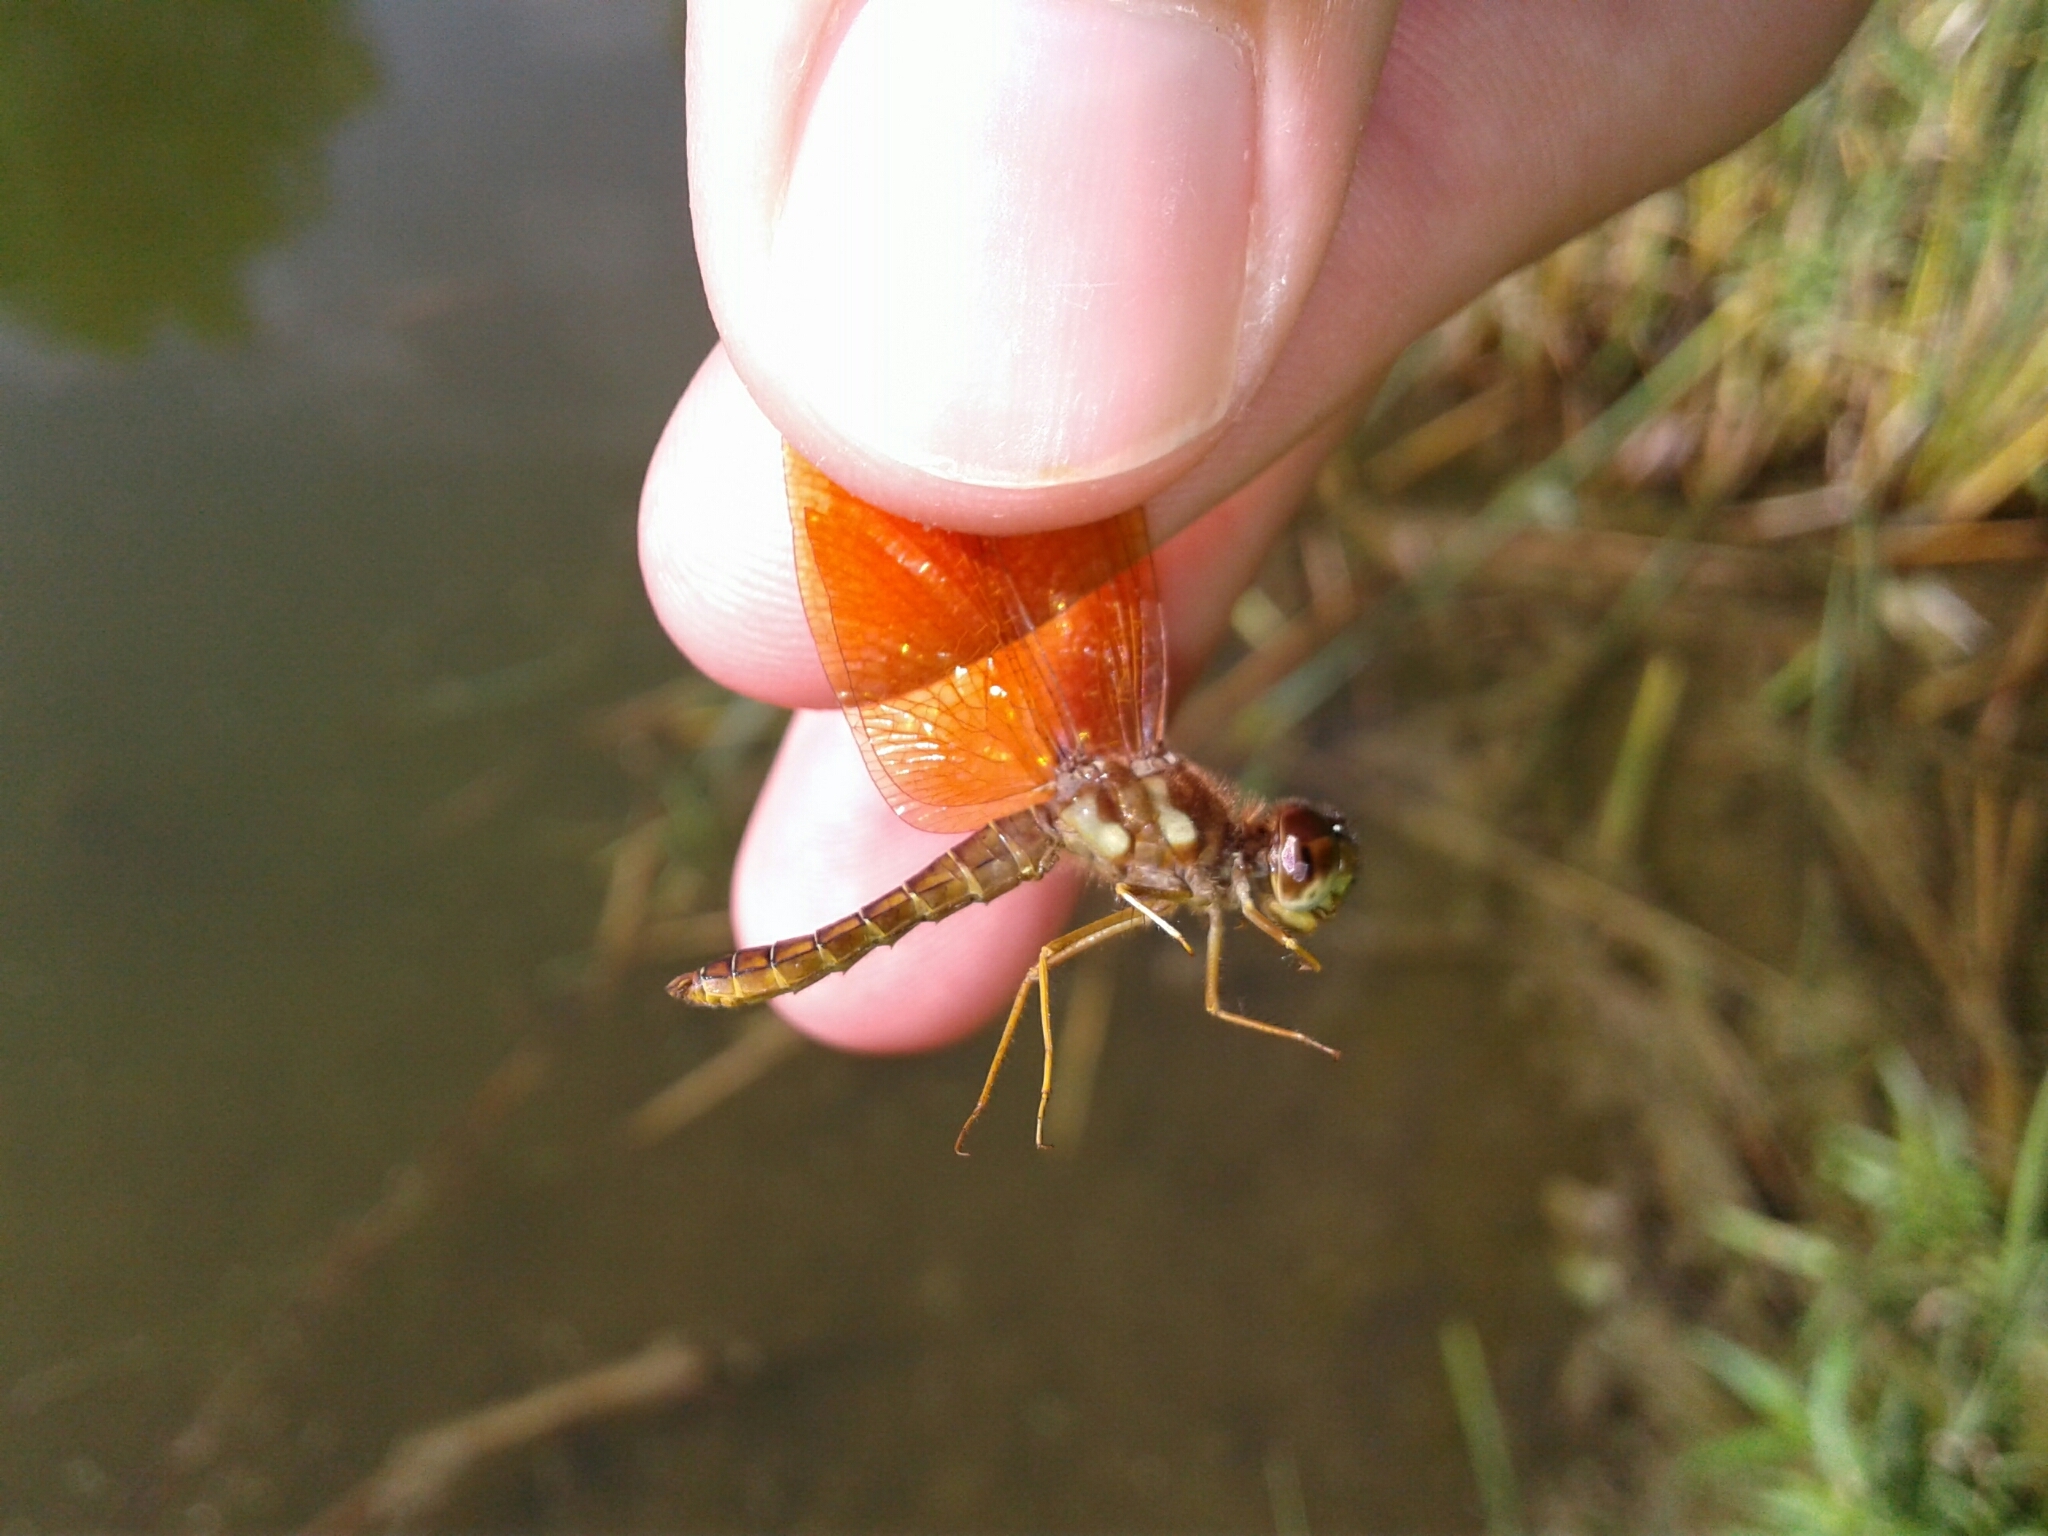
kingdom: Animalia
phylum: Arthropoda
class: Insecta
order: Odonata
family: Libellulidae
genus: Perithemis
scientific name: Perithemis tenera
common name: Eastern amberwing
